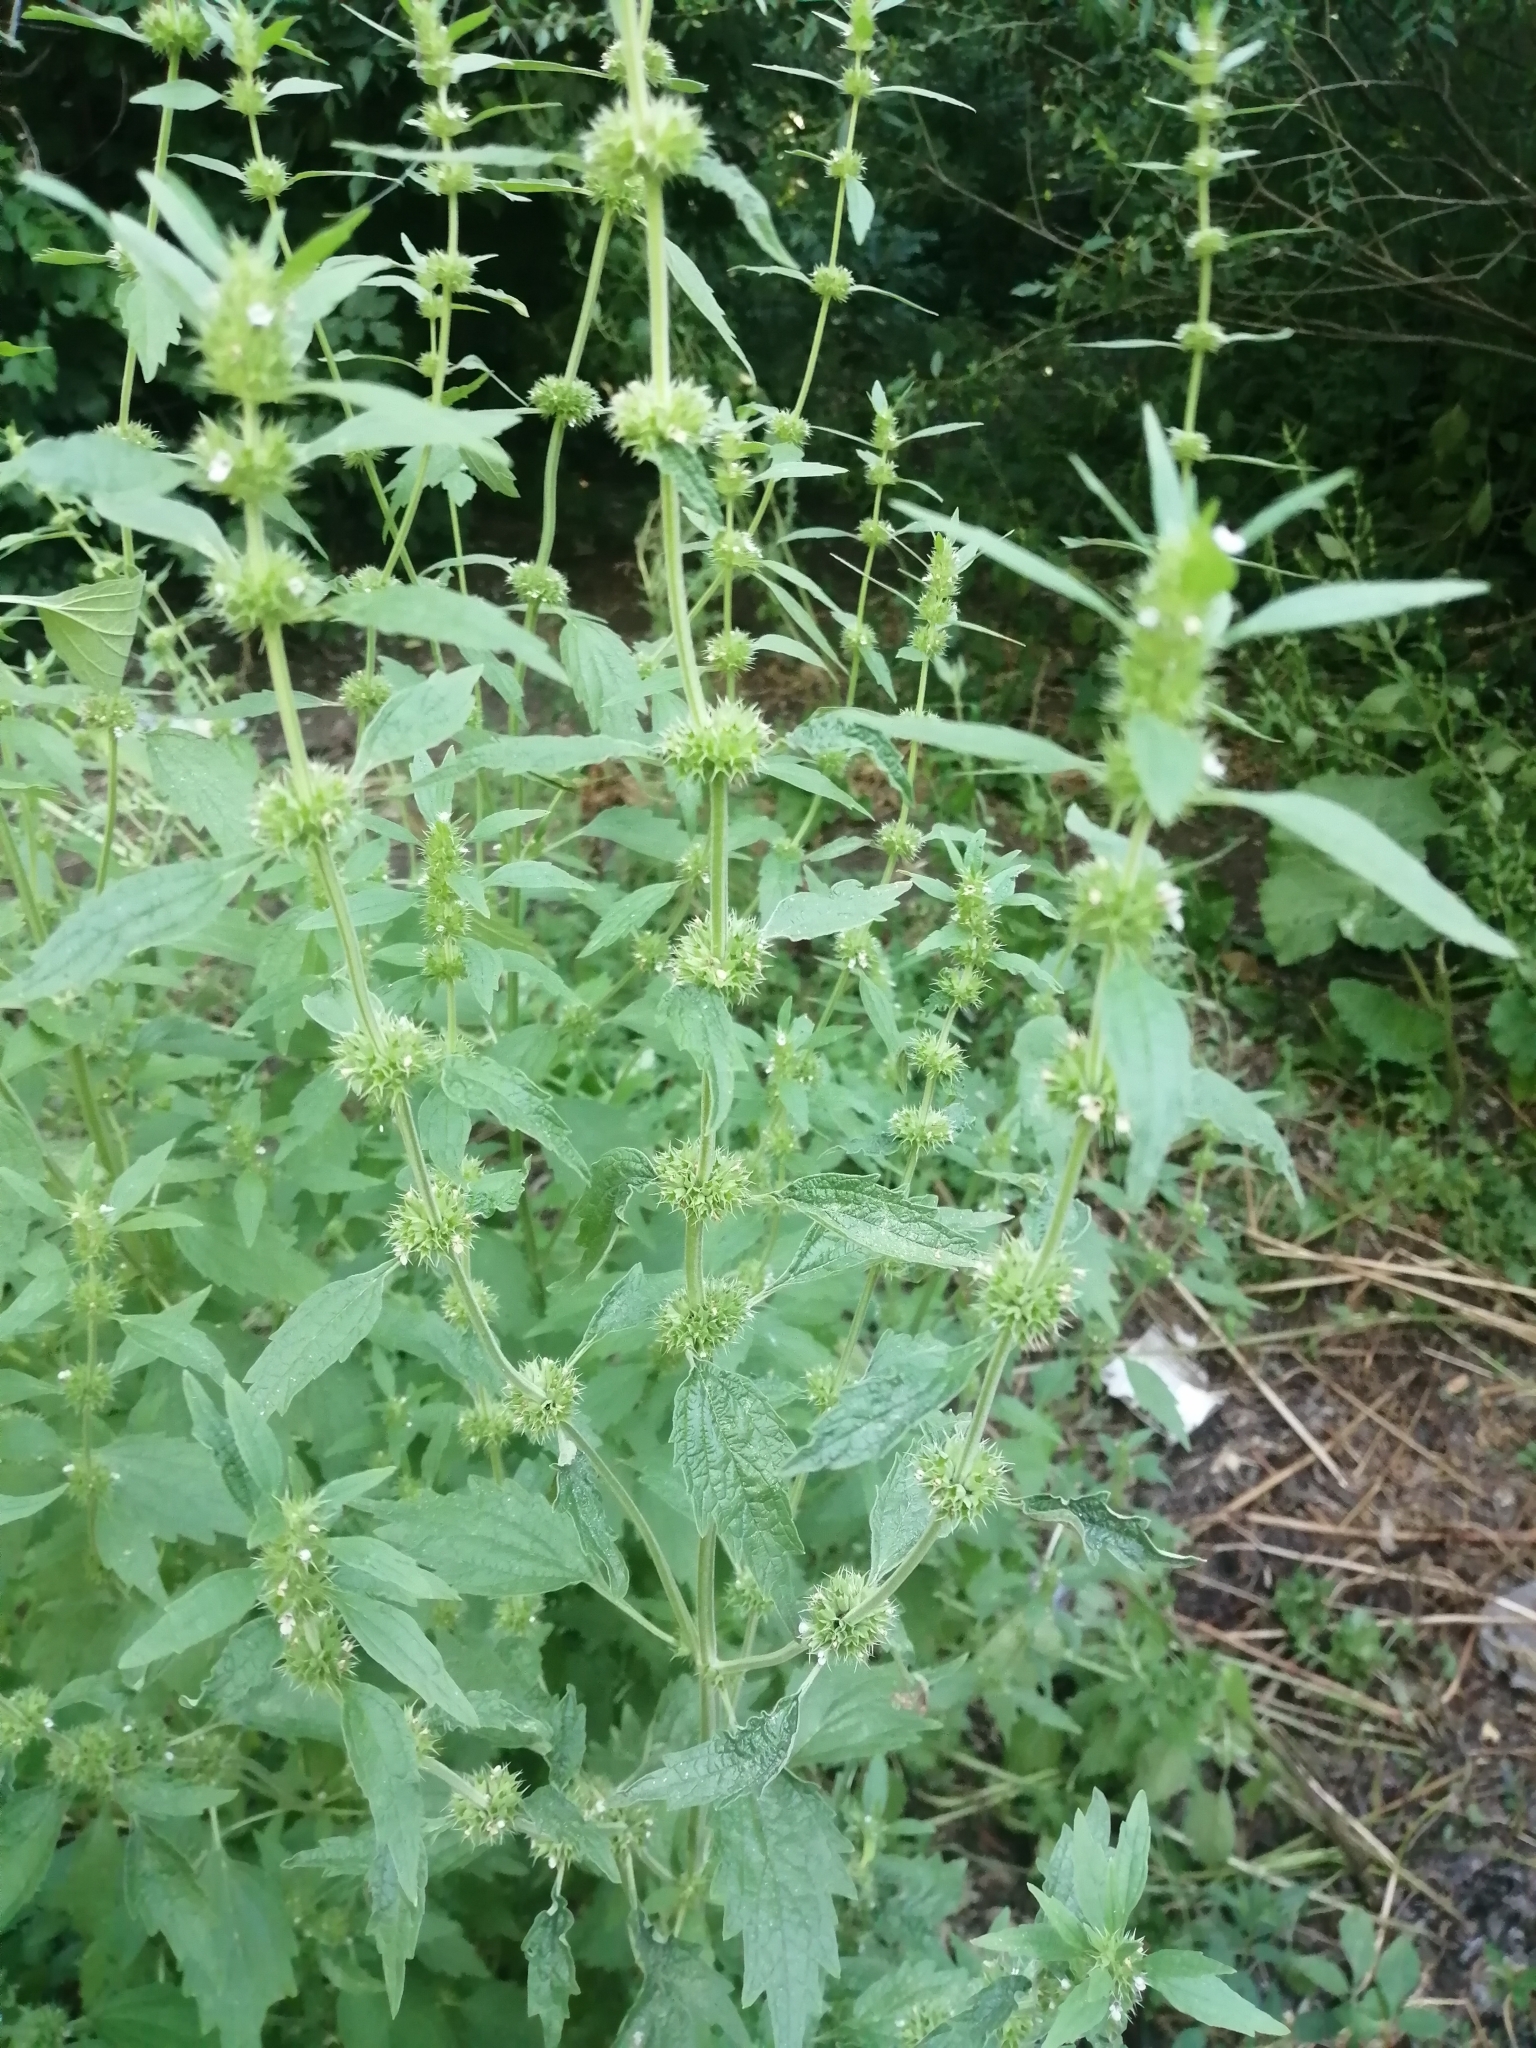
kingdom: Plantae
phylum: Tracheophyta
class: Magnoliopsida
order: Lamiales
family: Lamiaceae
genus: Chaiturus
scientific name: Chaiturus marrubiastrum
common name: Lion's tail
